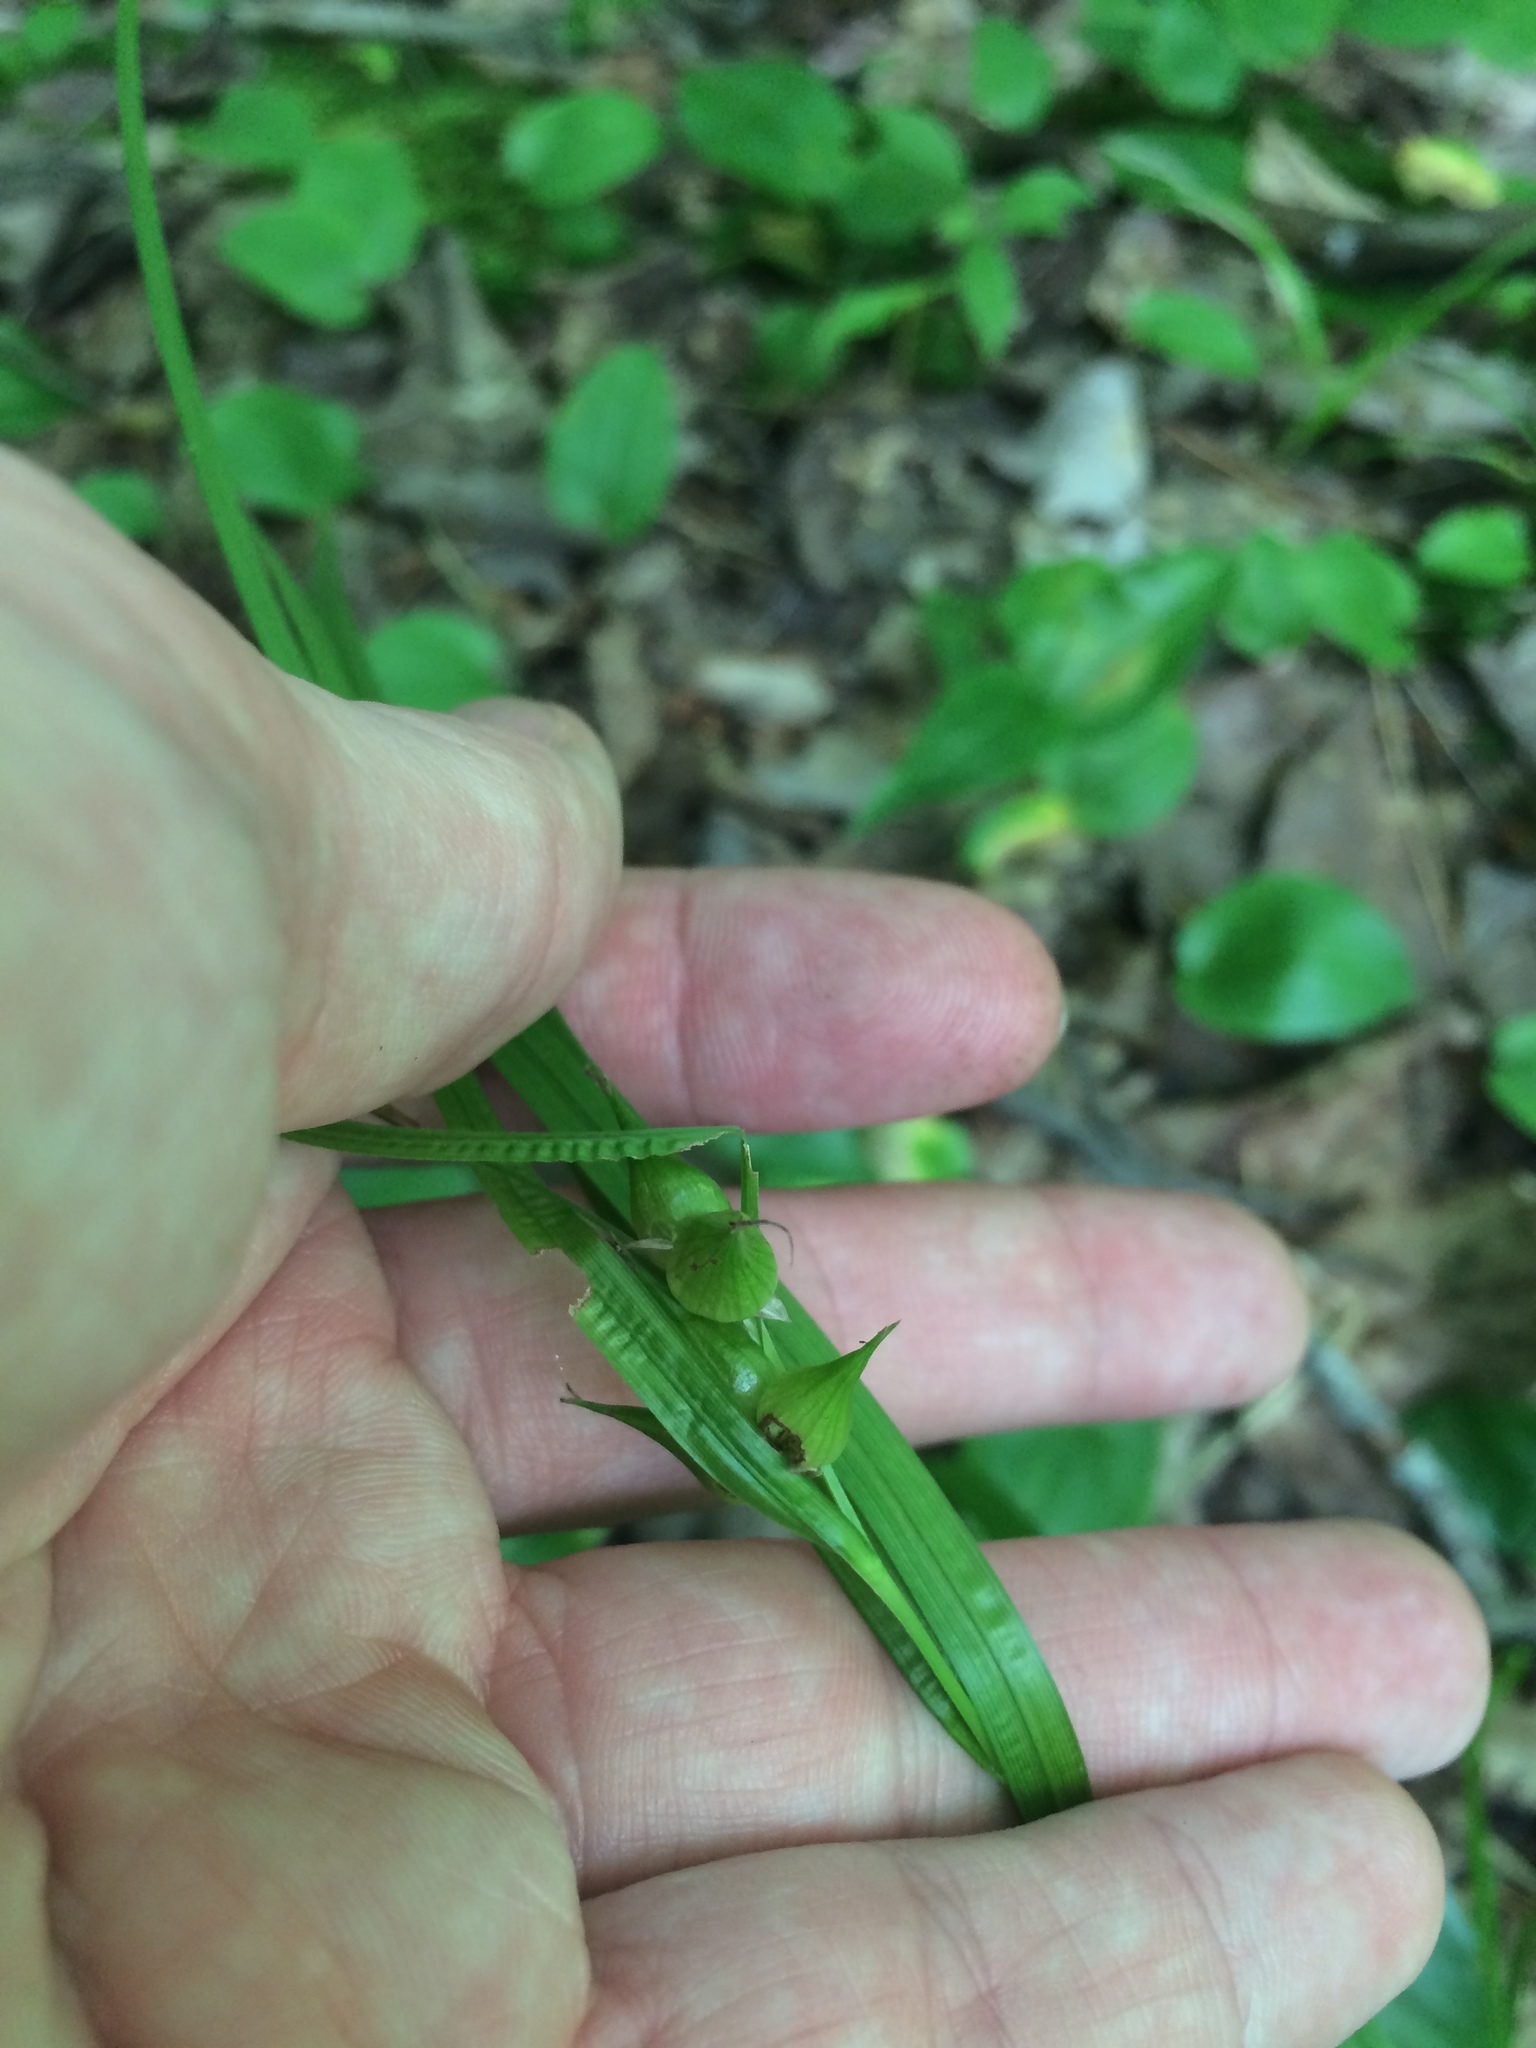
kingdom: Plantae
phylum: Tracheophyta
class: Liliopsida
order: Poales
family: Cyperaceae
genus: Carex
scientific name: Carex intumescens
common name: Greater bladder sedge
